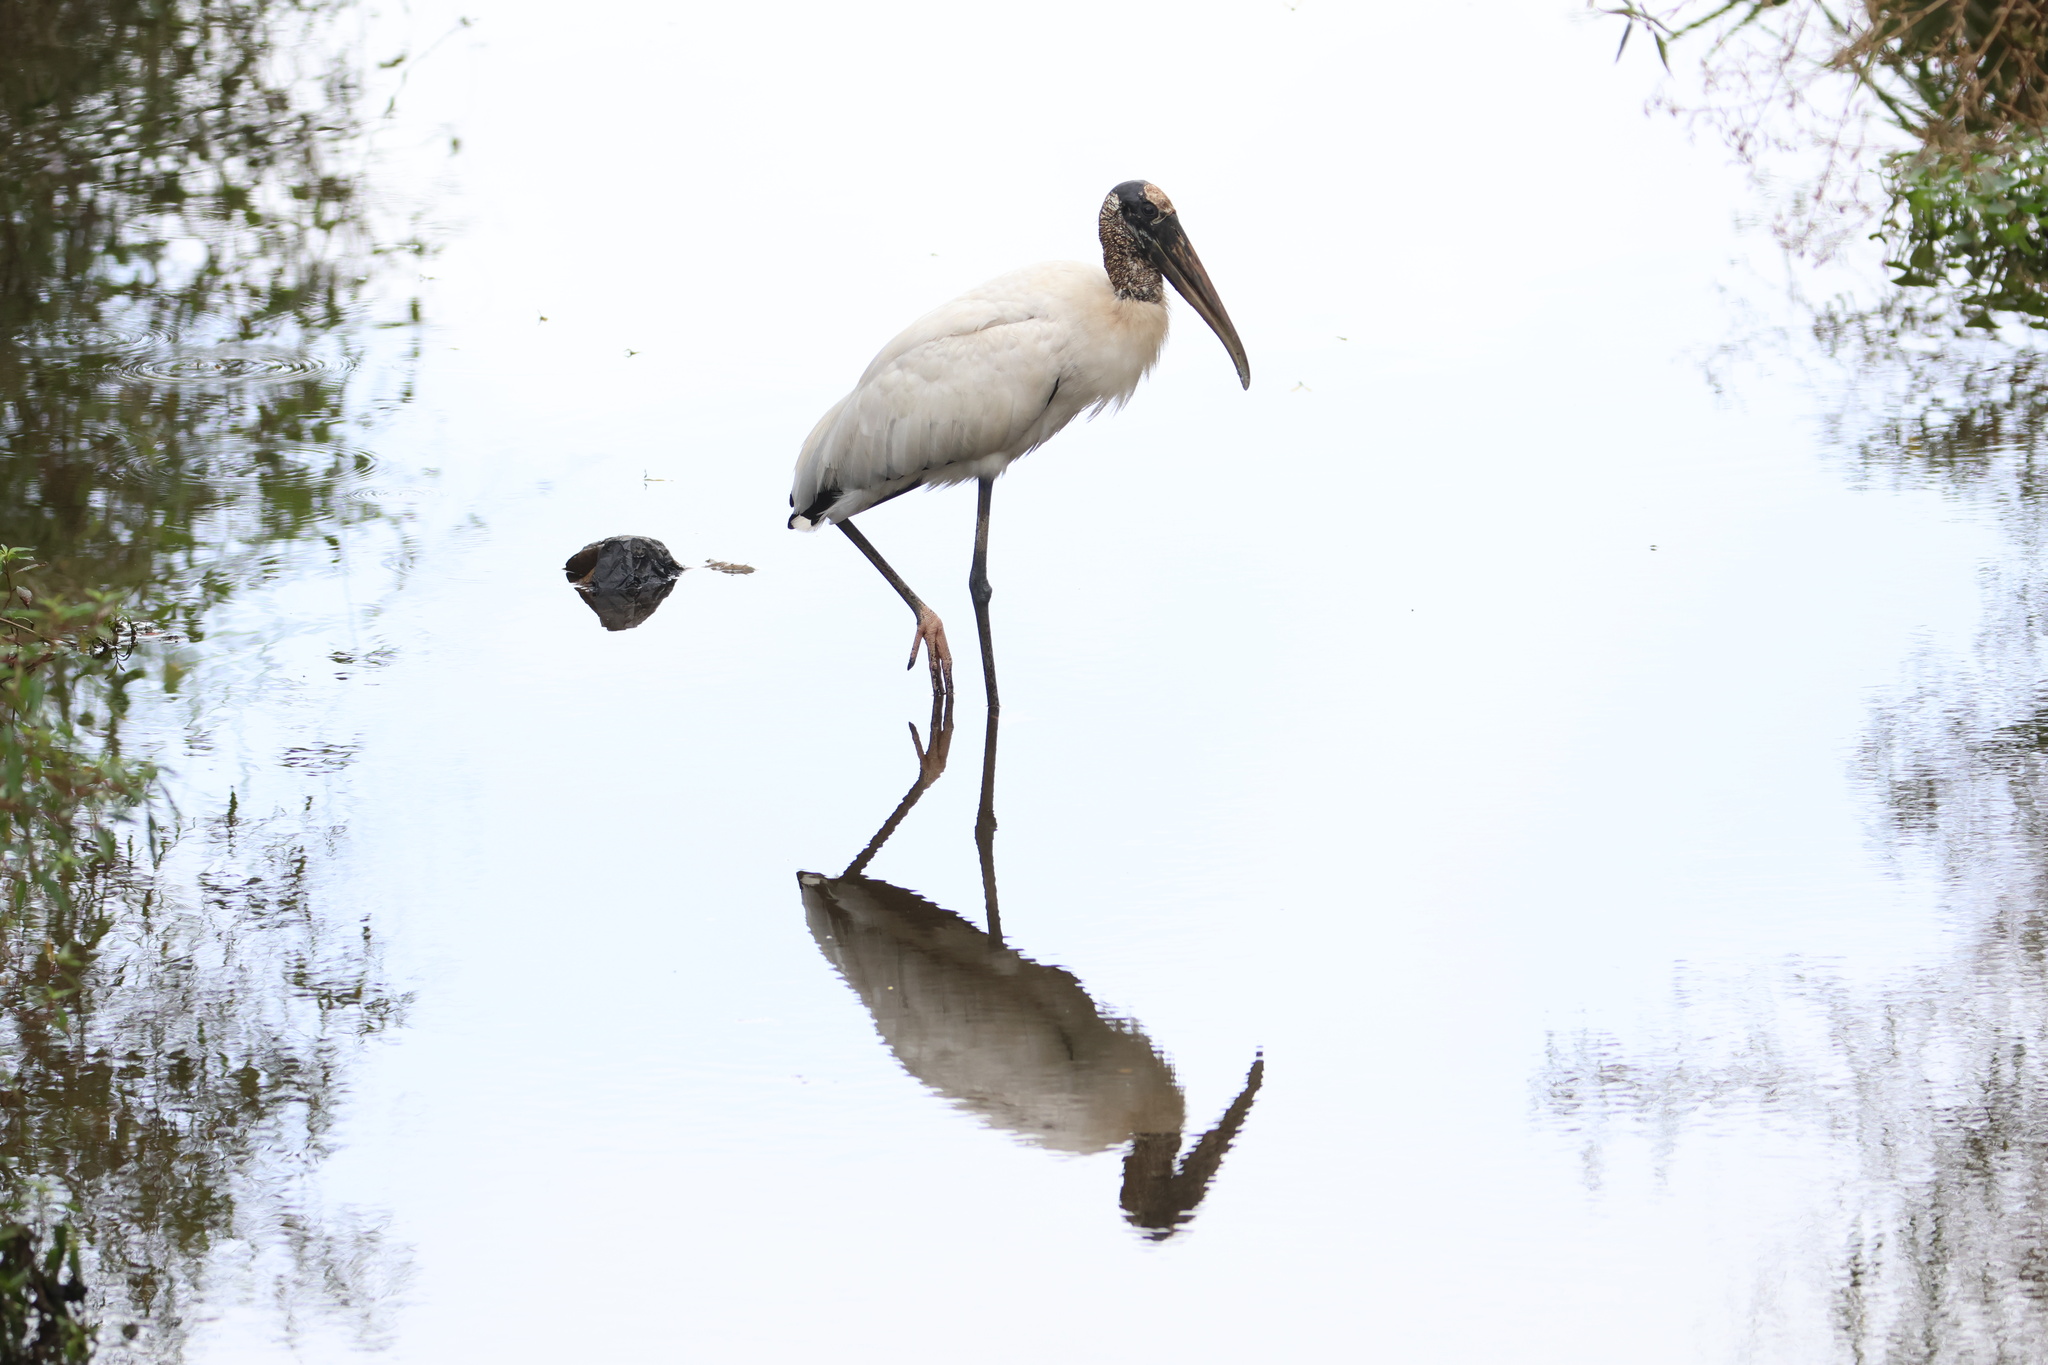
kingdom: Animalia
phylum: Chordata
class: Aves
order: Ciconiiformes
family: Ciconiidae
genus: Mycteria
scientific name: Mycteria americana
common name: Wood stork
